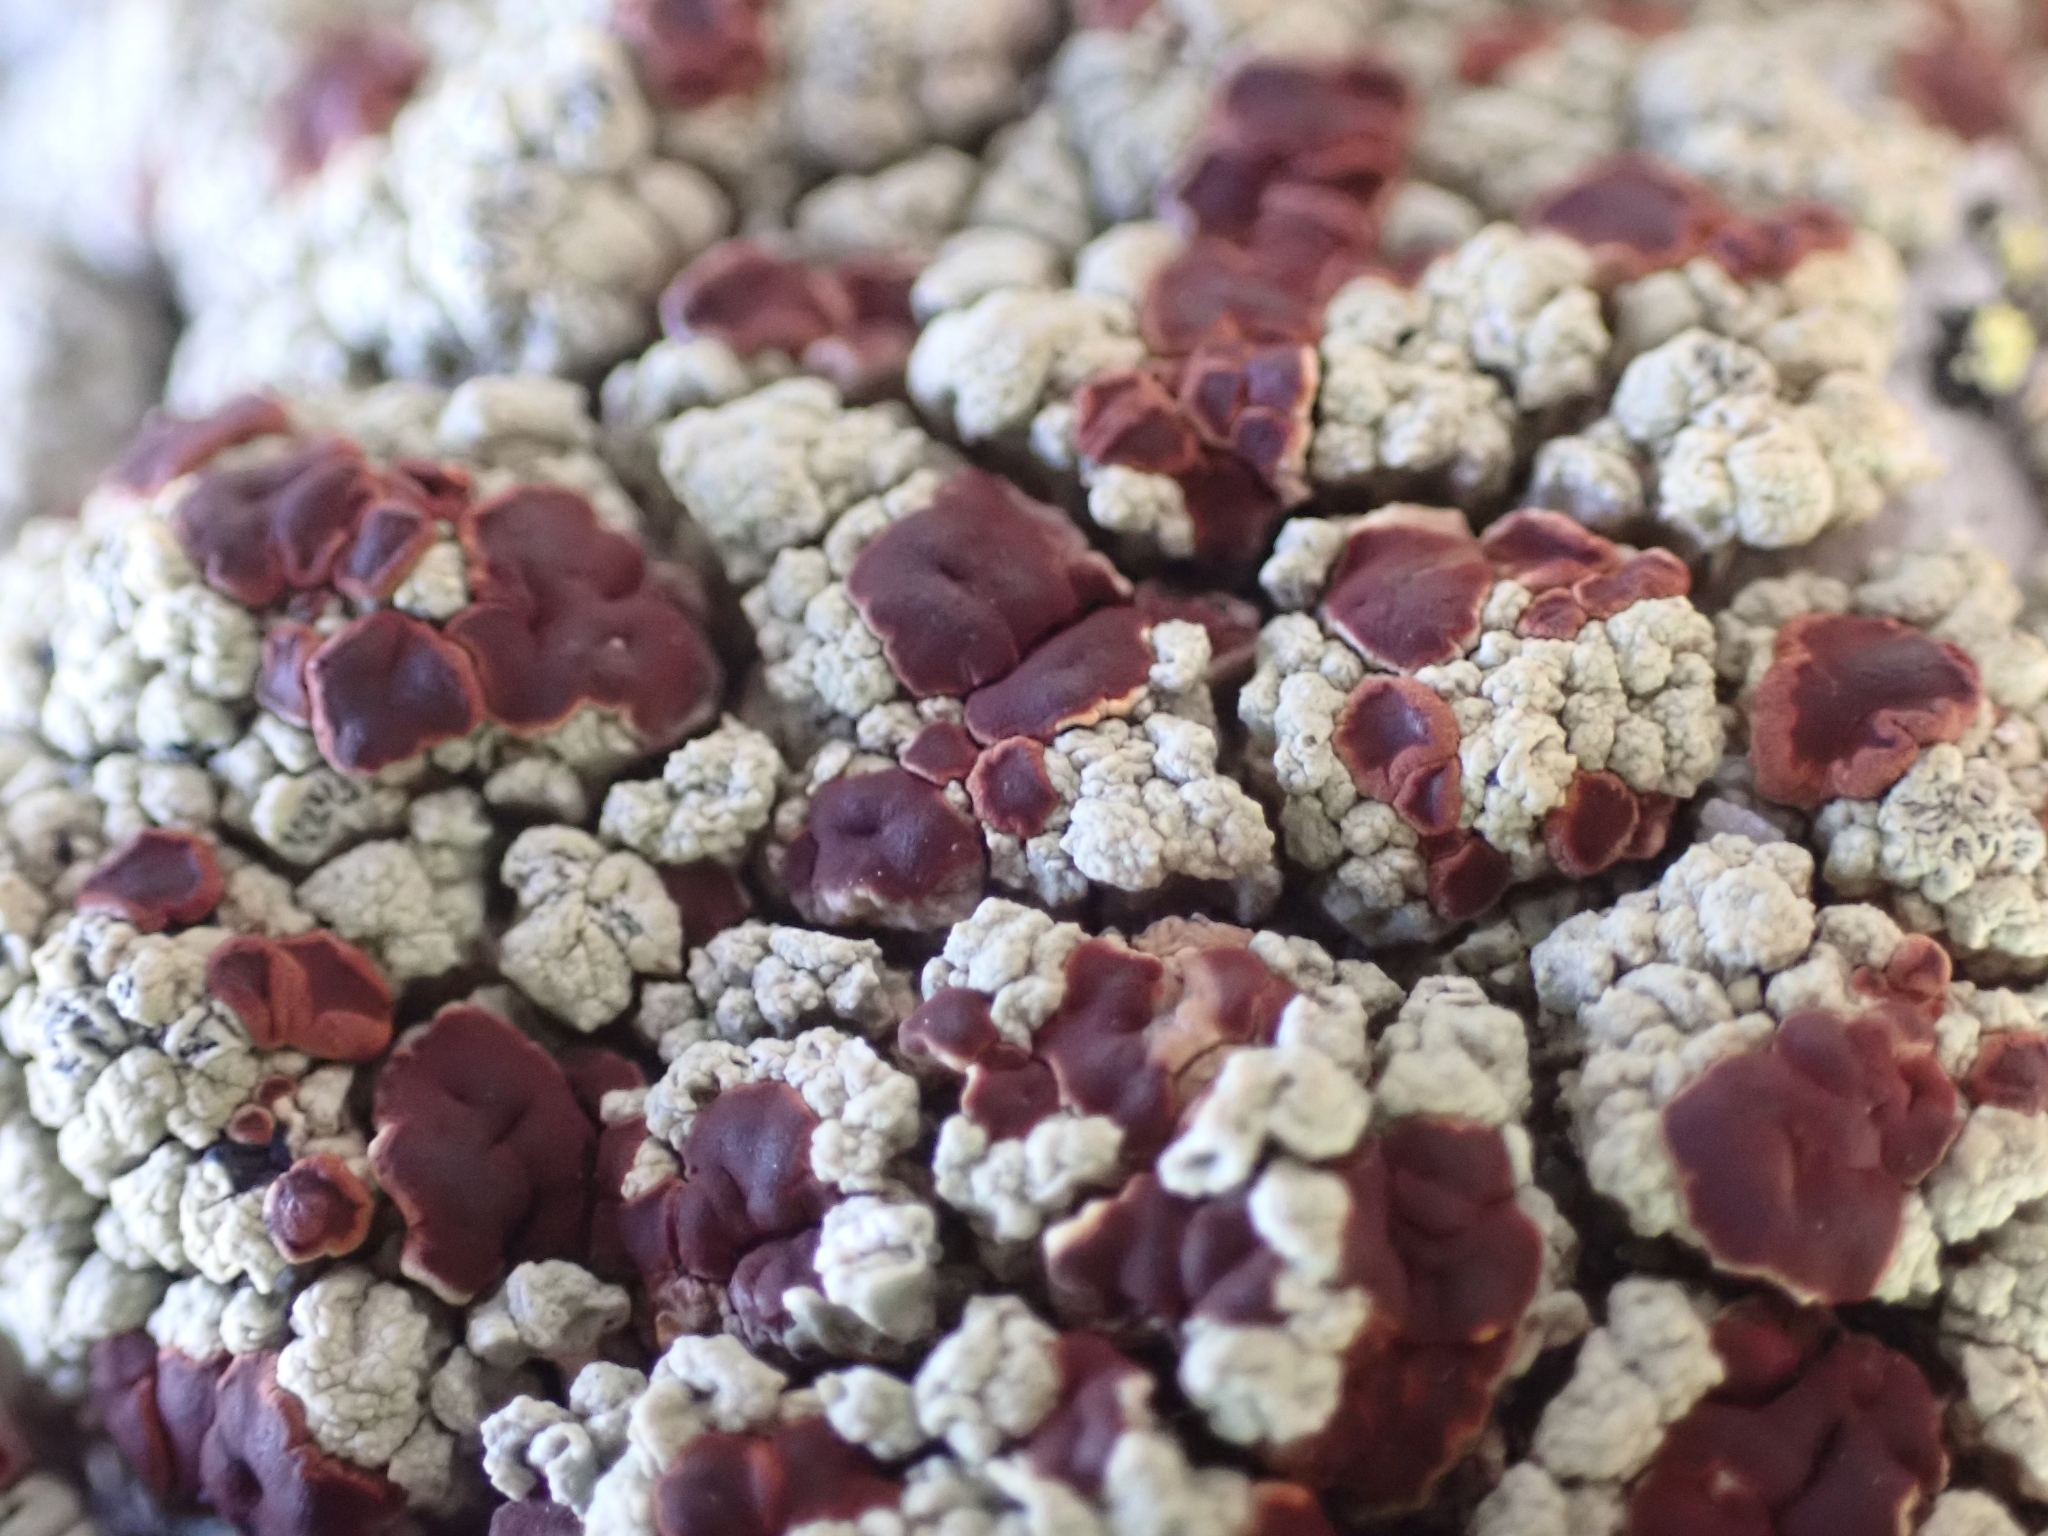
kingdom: Fungi
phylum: Ascomycota
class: Lecanoromycetes
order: Umbilicariales
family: Ophioparmaceae
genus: Ophioparma
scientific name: Ophioparma ventosa
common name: Blood-spot
